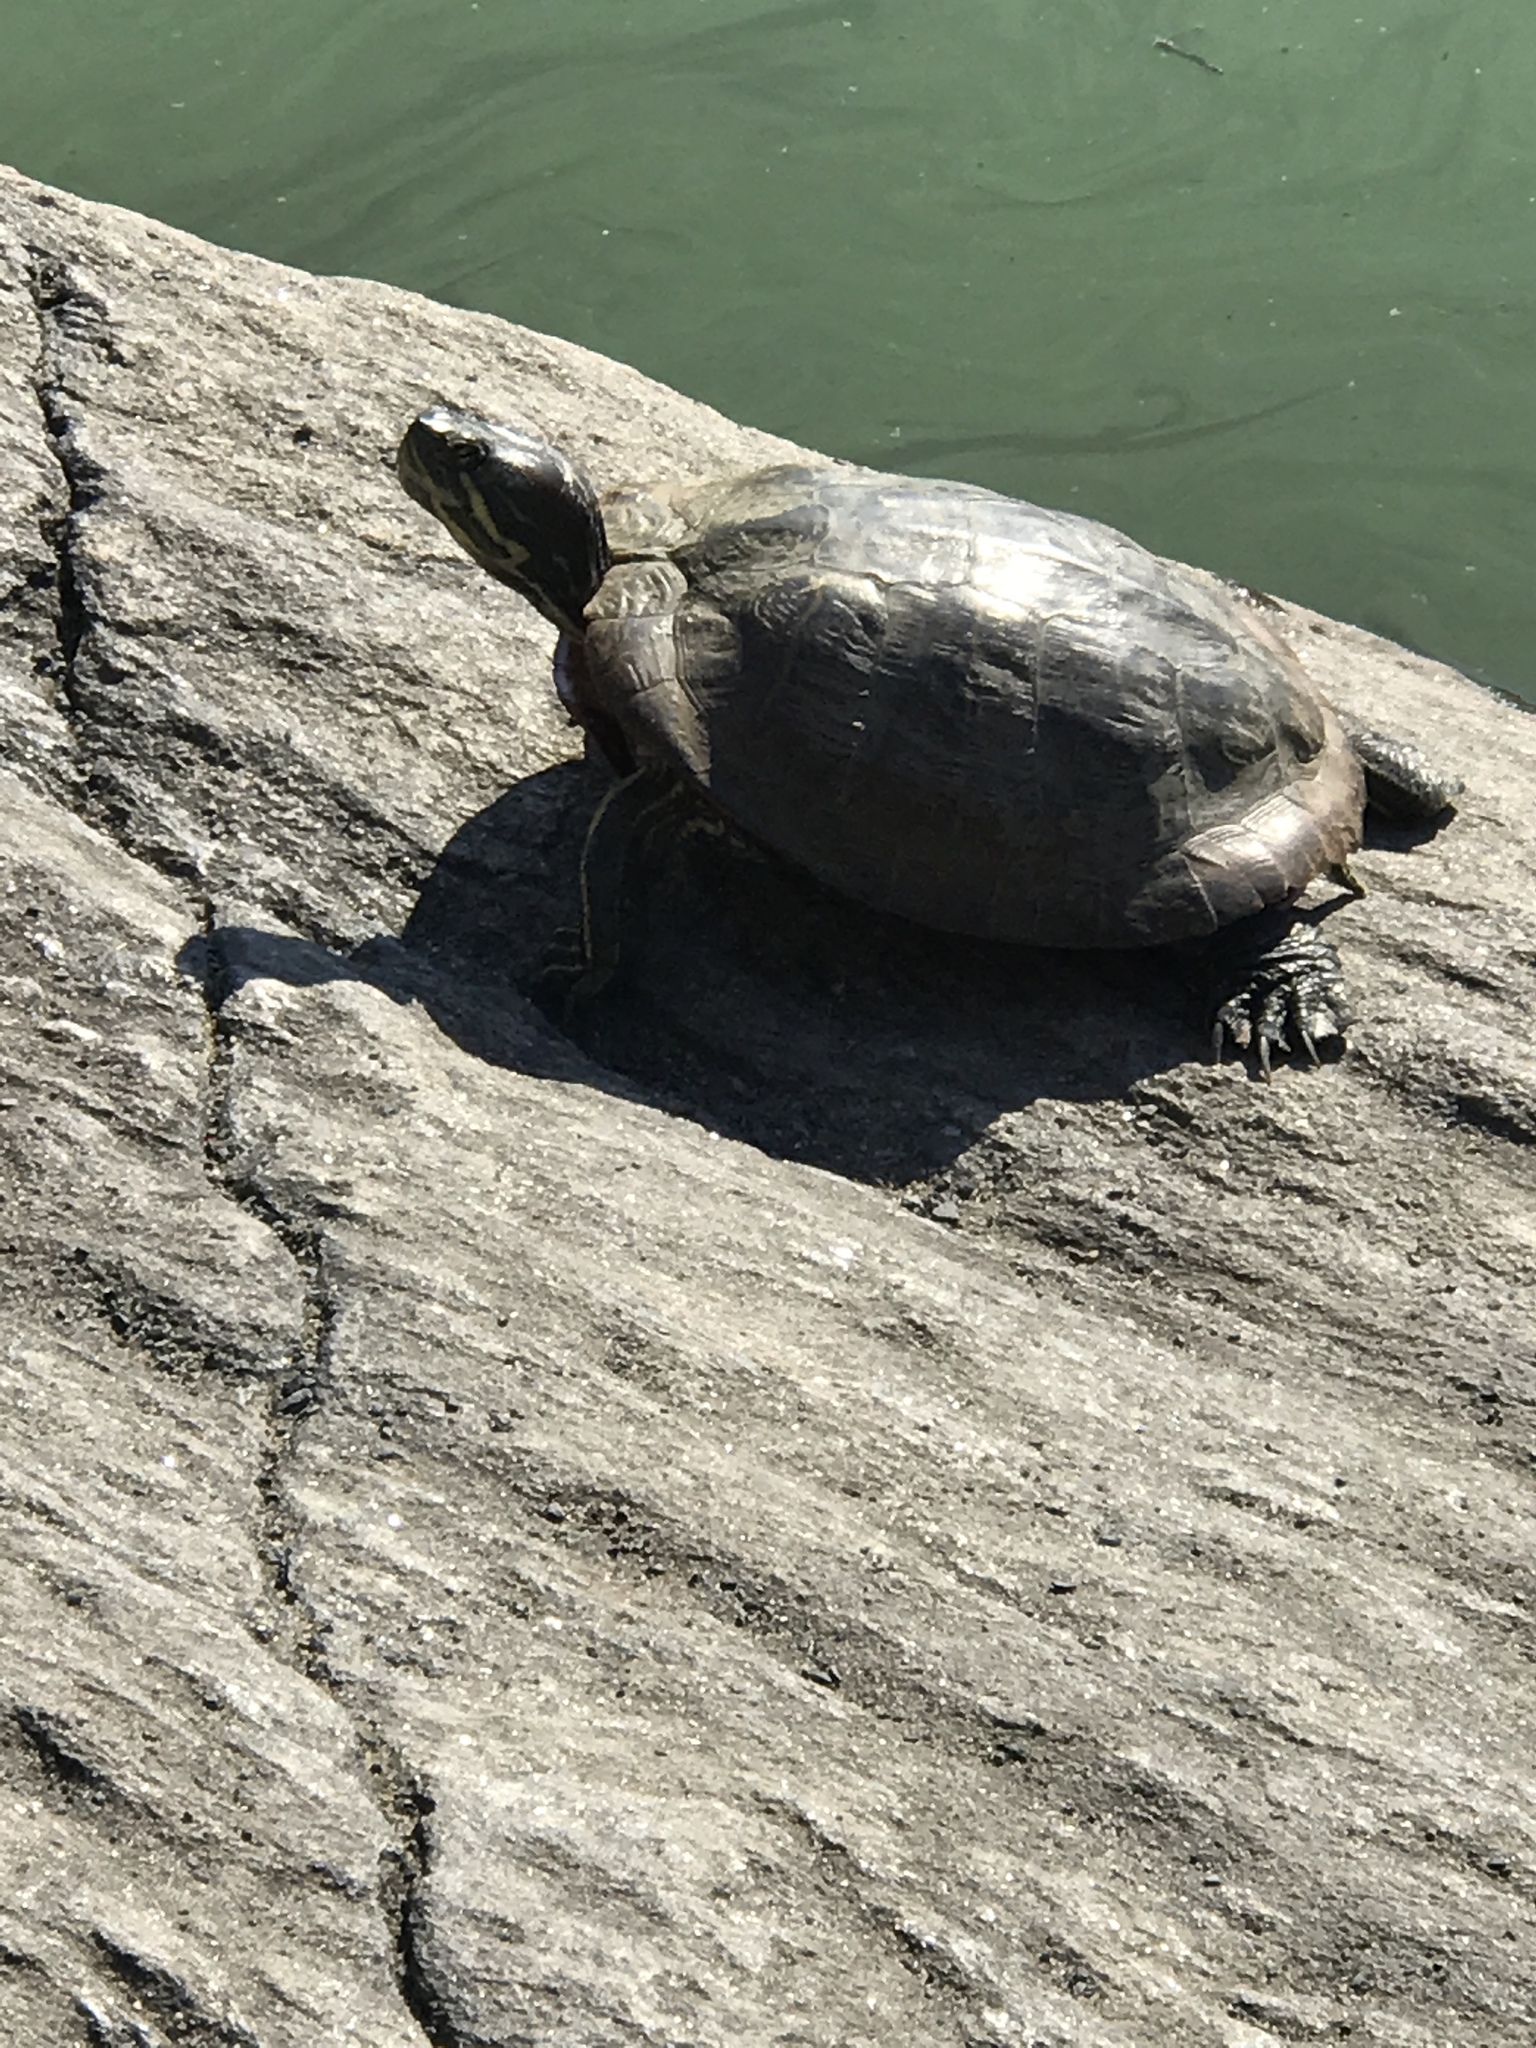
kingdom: Animalia
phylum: Chordata
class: Testudines
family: Emydidae
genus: Trachemys
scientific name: Trachemys scripta
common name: Slider
